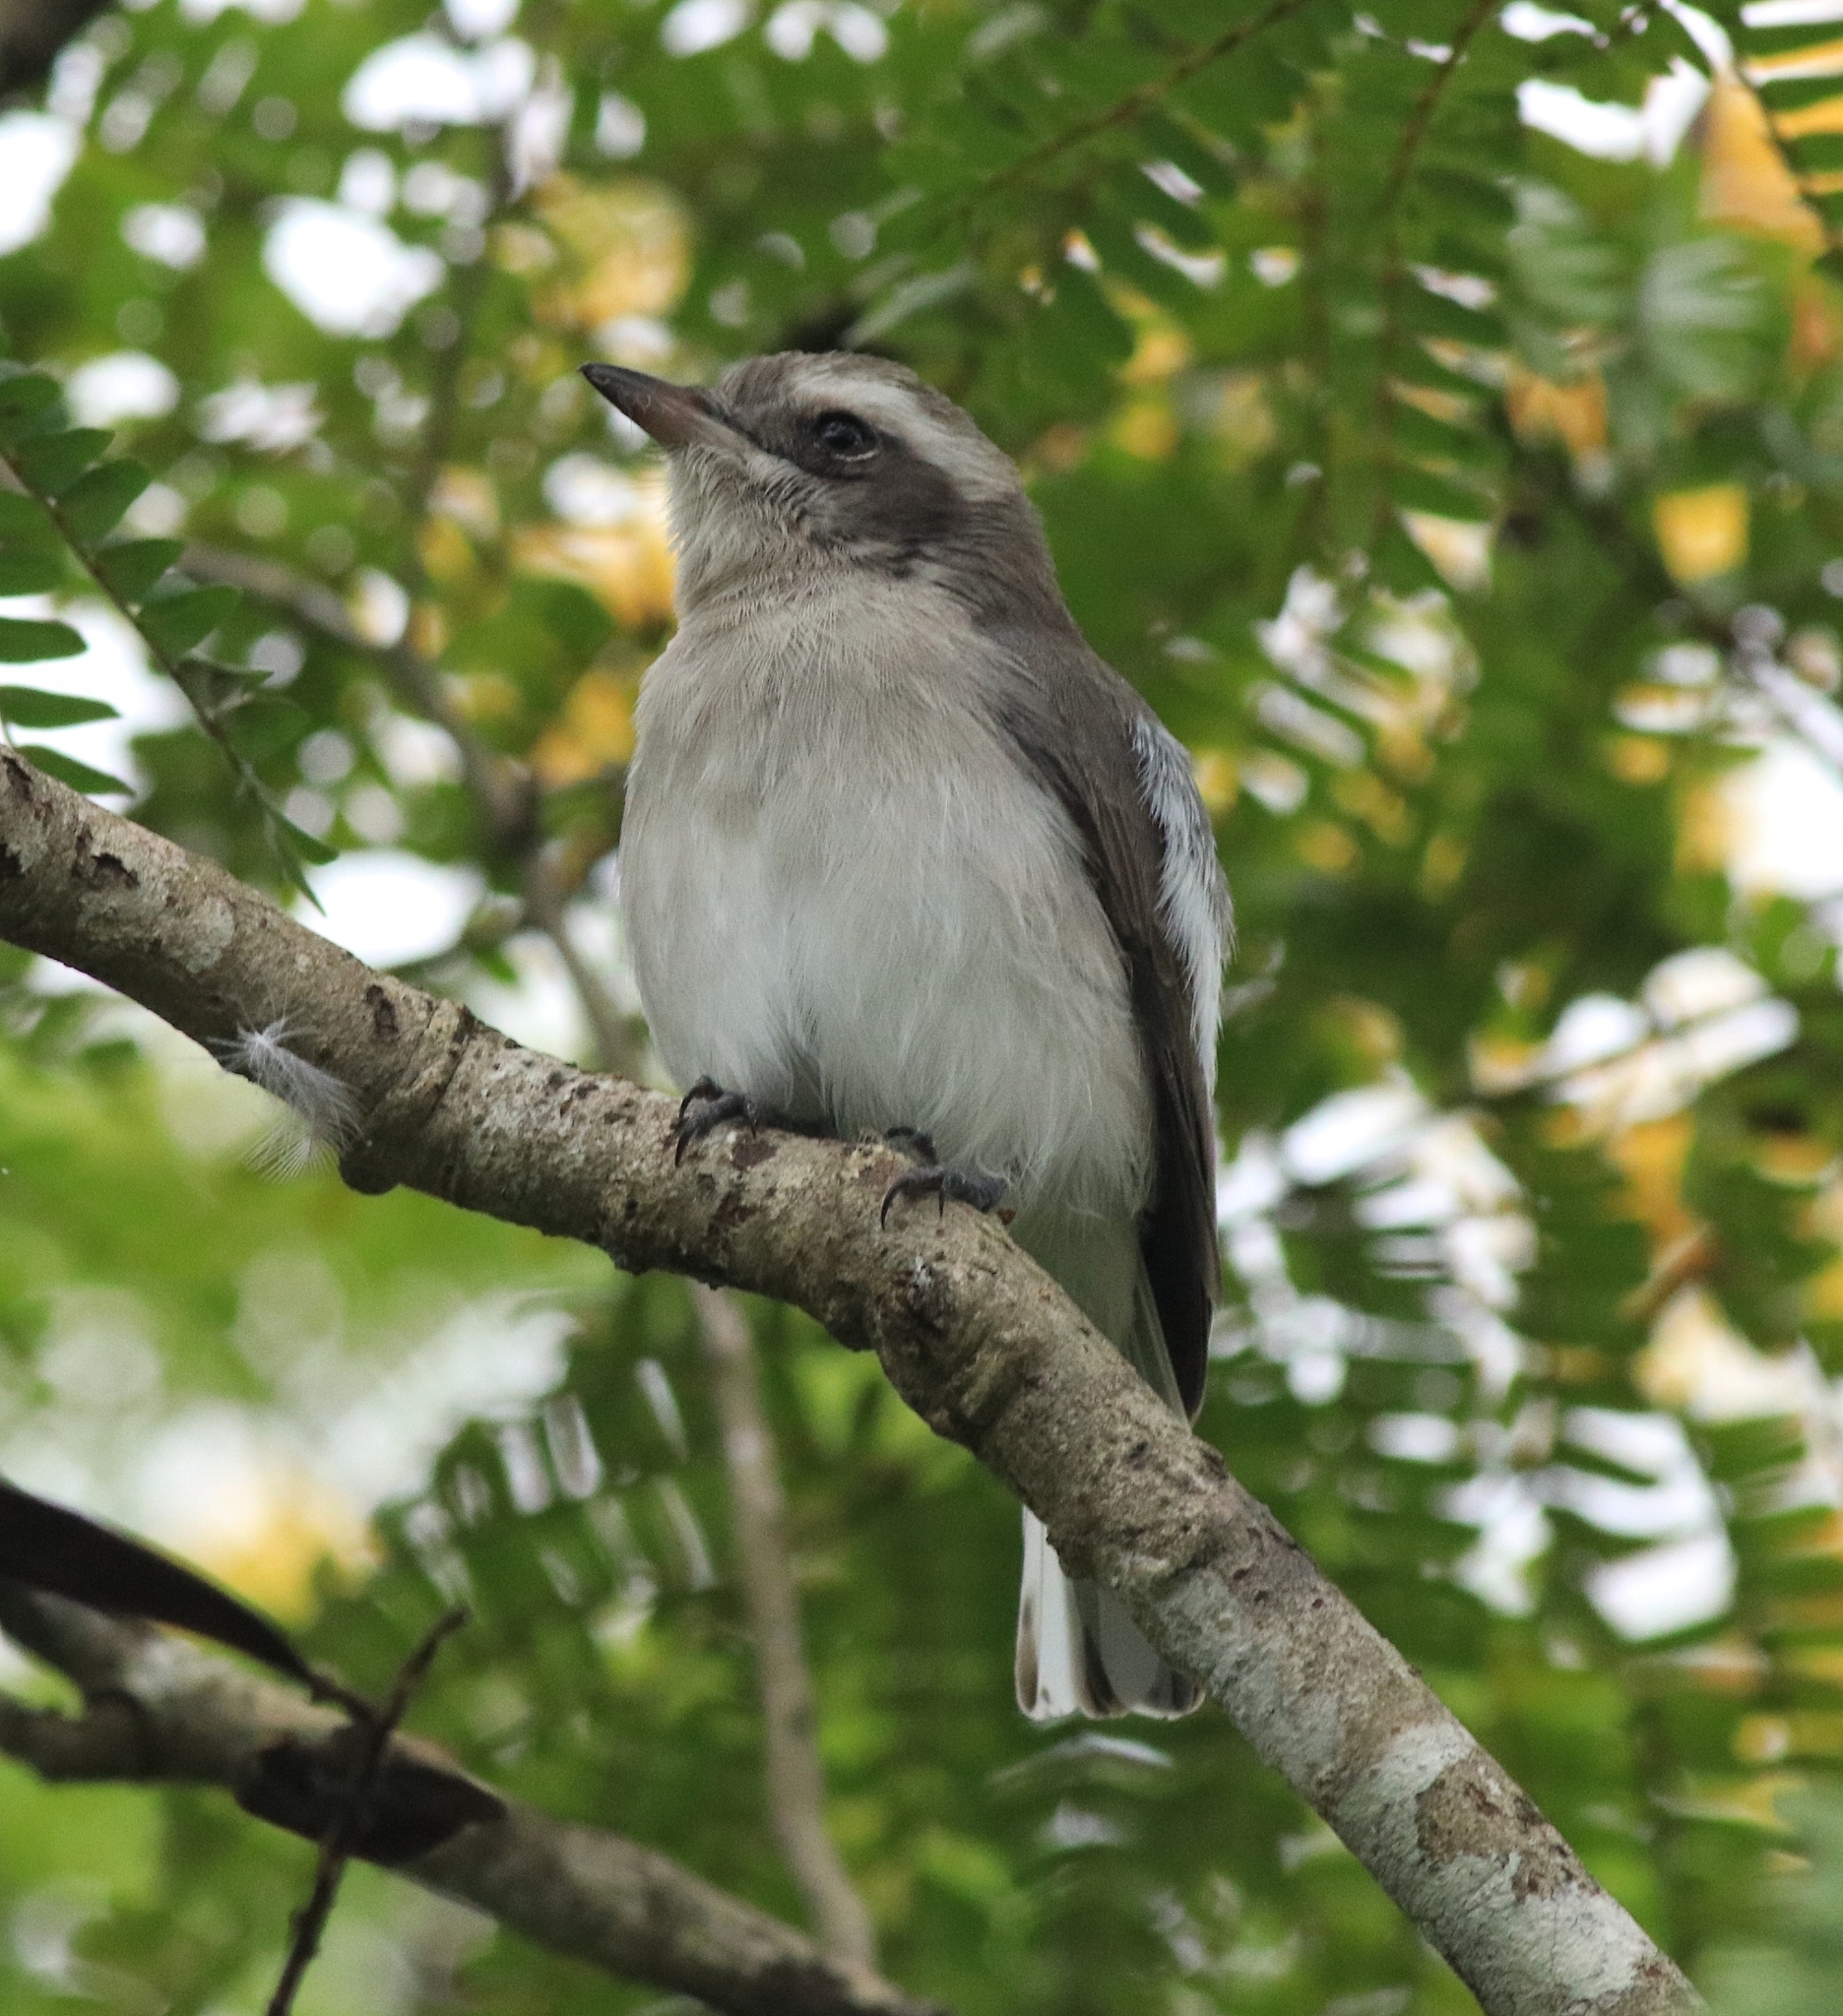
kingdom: Animalia
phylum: Chordata
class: Aves
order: Passeriformes
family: Tephrodornithidae
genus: Tephrodornis
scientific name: Tephrodornis pondicerianus
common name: Common woodshrike
